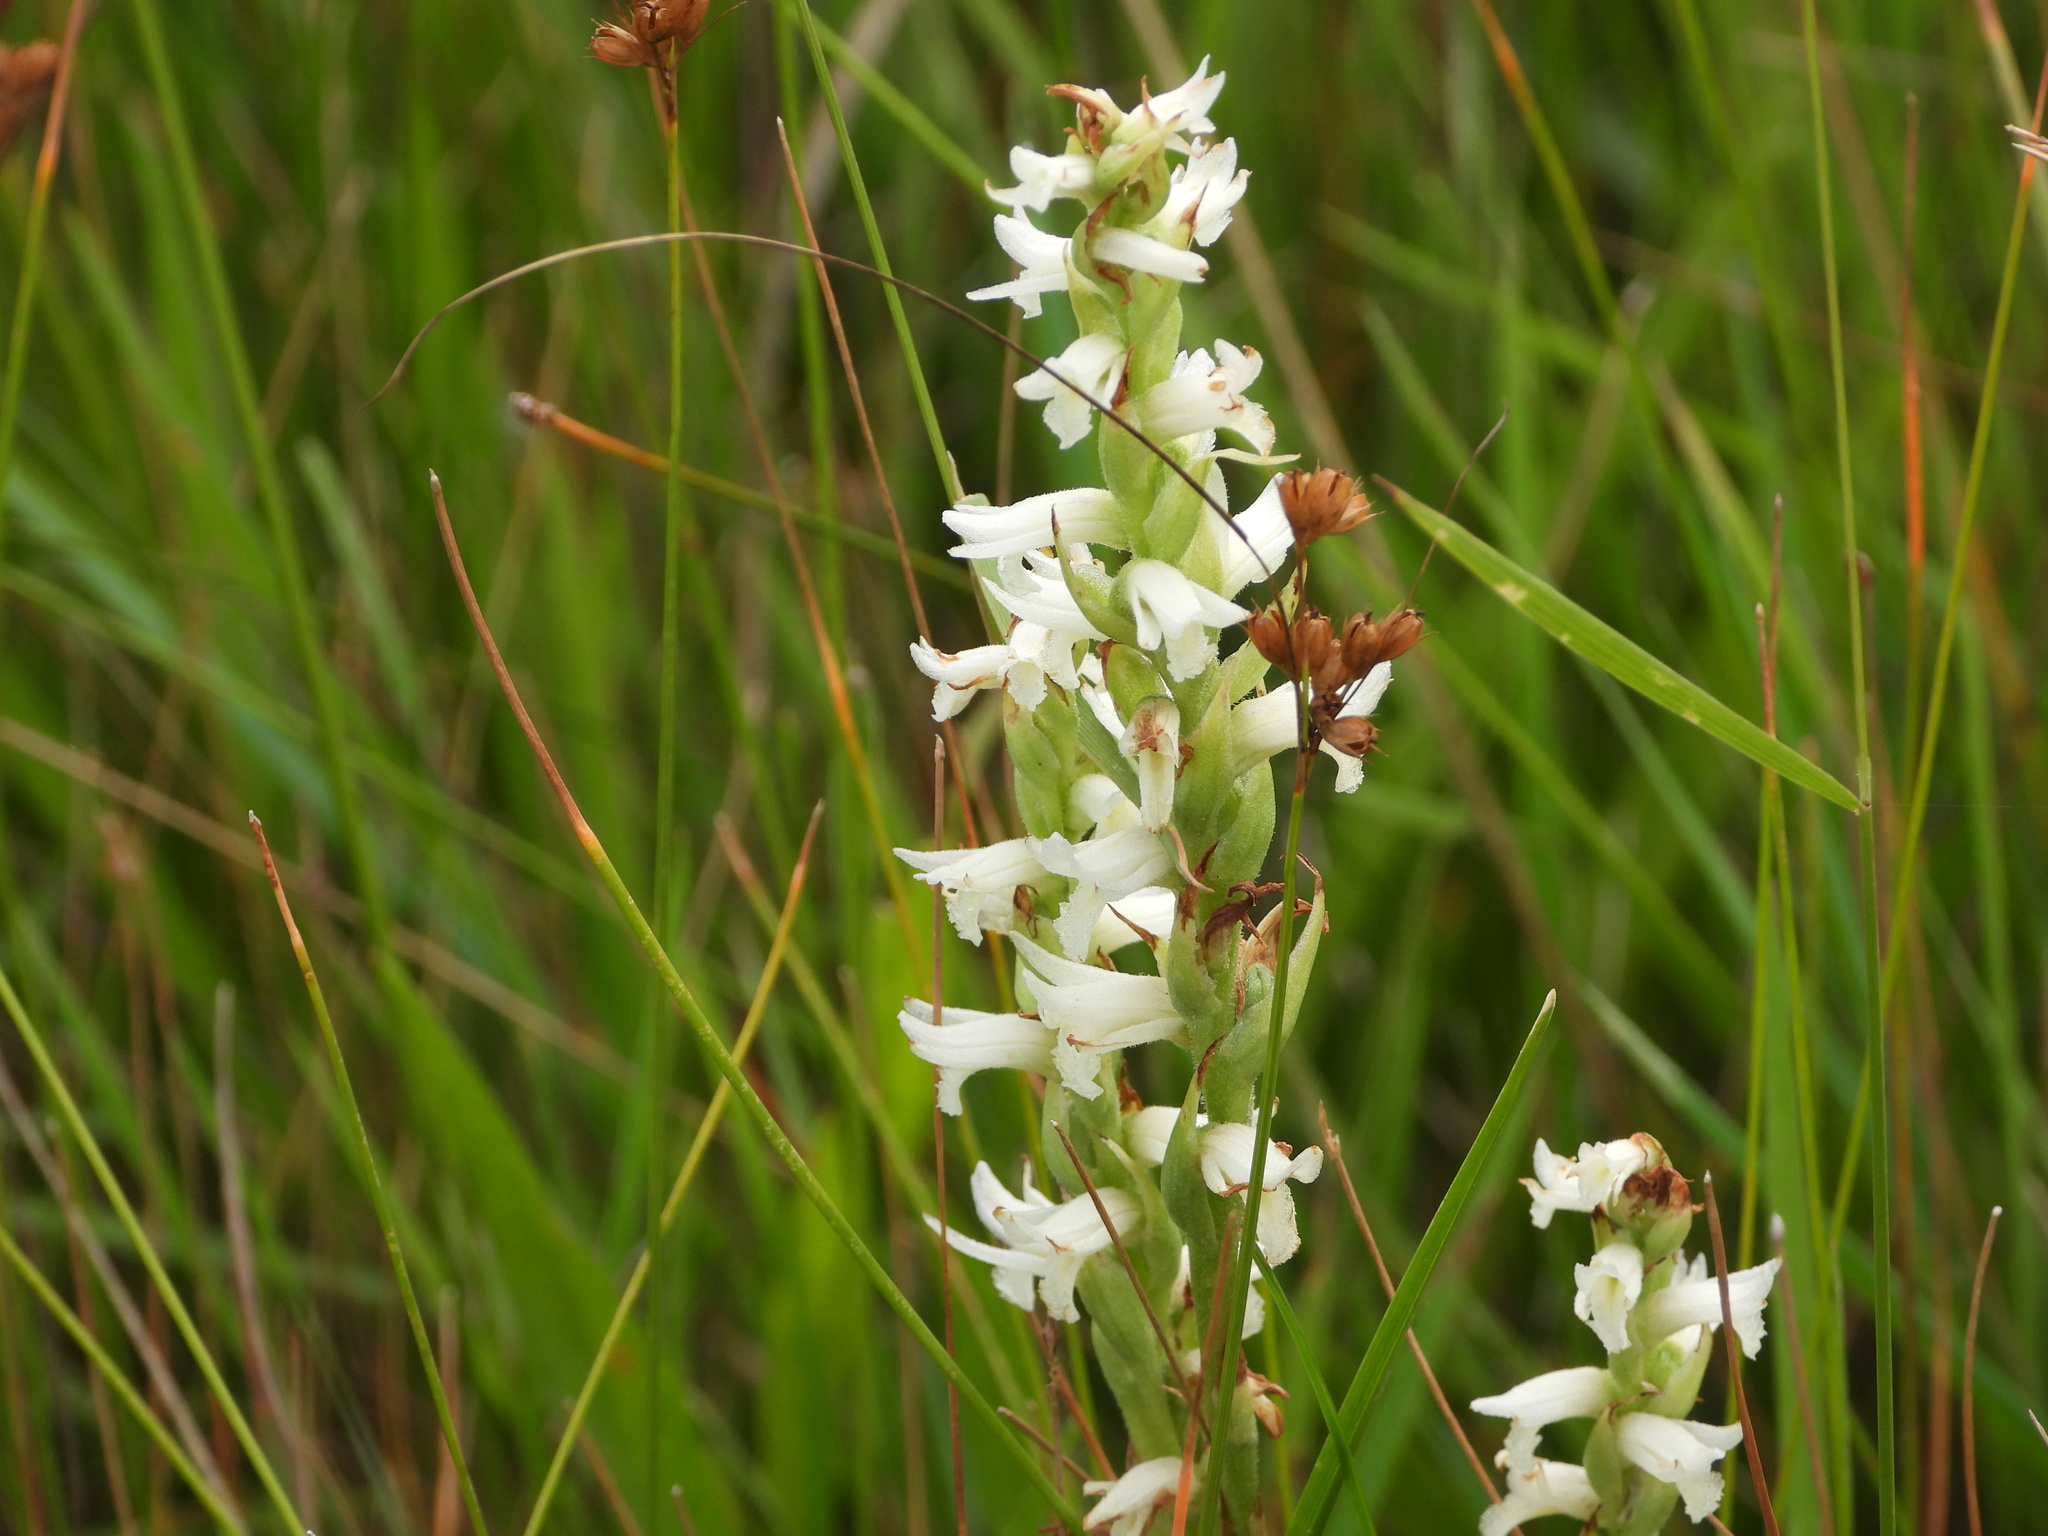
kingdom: Plantae
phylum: Tracheophyta
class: Liliopsida
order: Asparagales
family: Orchidaceae
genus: Spiranthes
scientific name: Spiranthes diluvialis
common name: Ute ladies'-tresses
